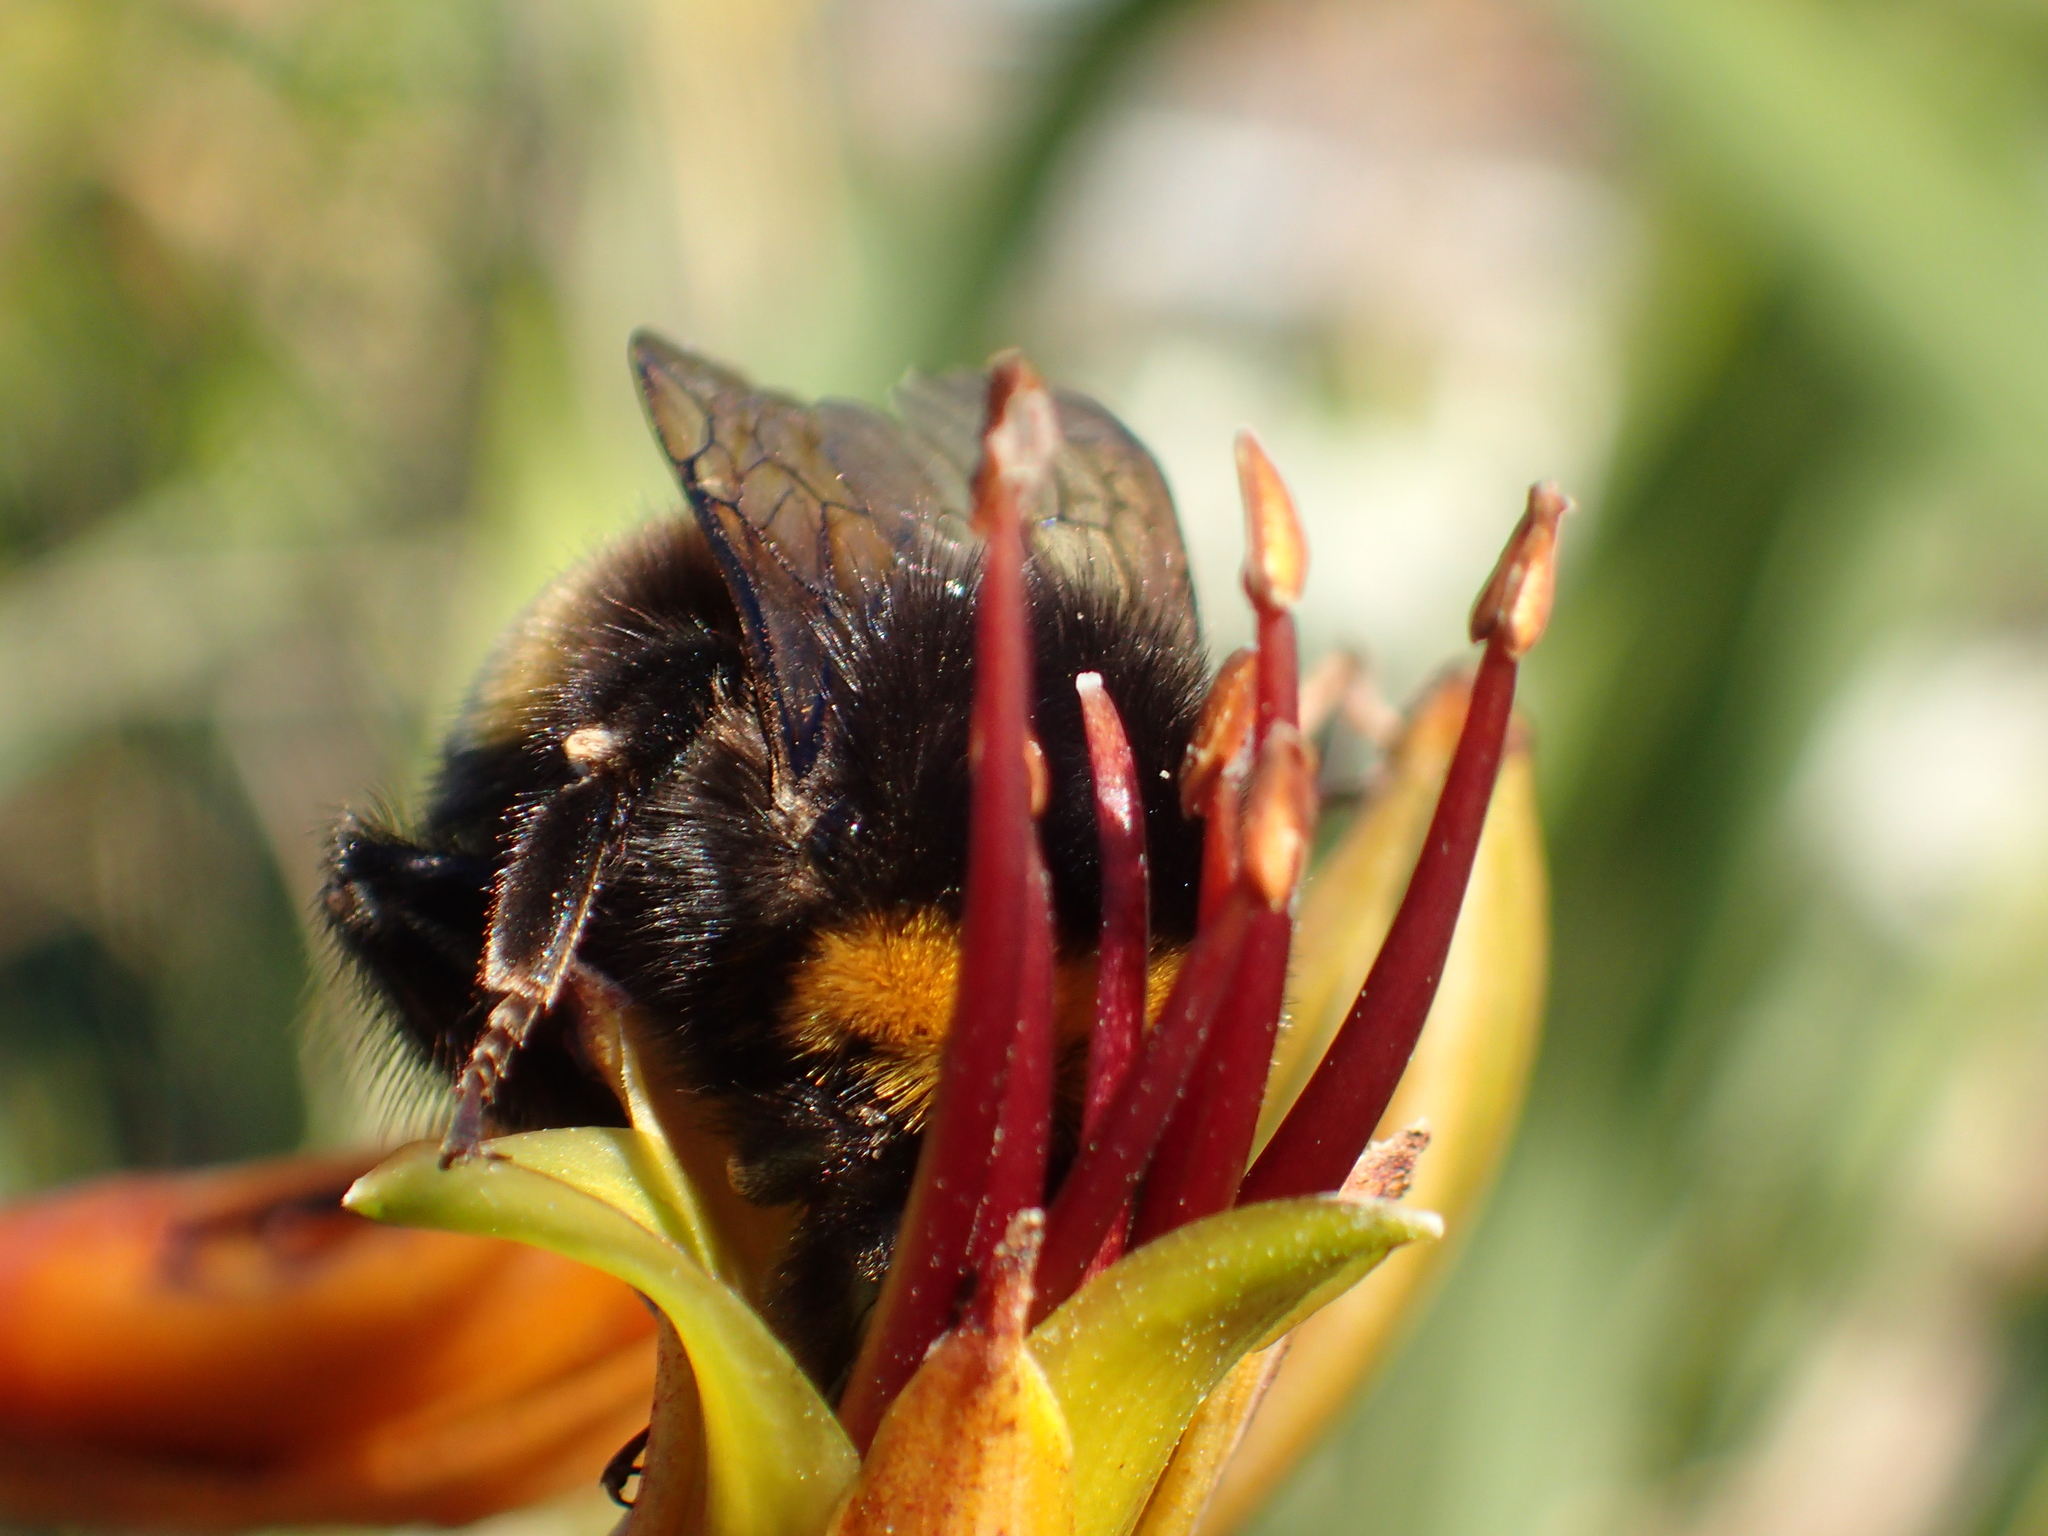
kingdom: Animalia
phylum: Arthropoda
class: Insecta
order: Hymenoptera
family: Apidae
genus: Bombus
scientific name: Bombus terrestris
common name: Buff-tailed bumblebee
